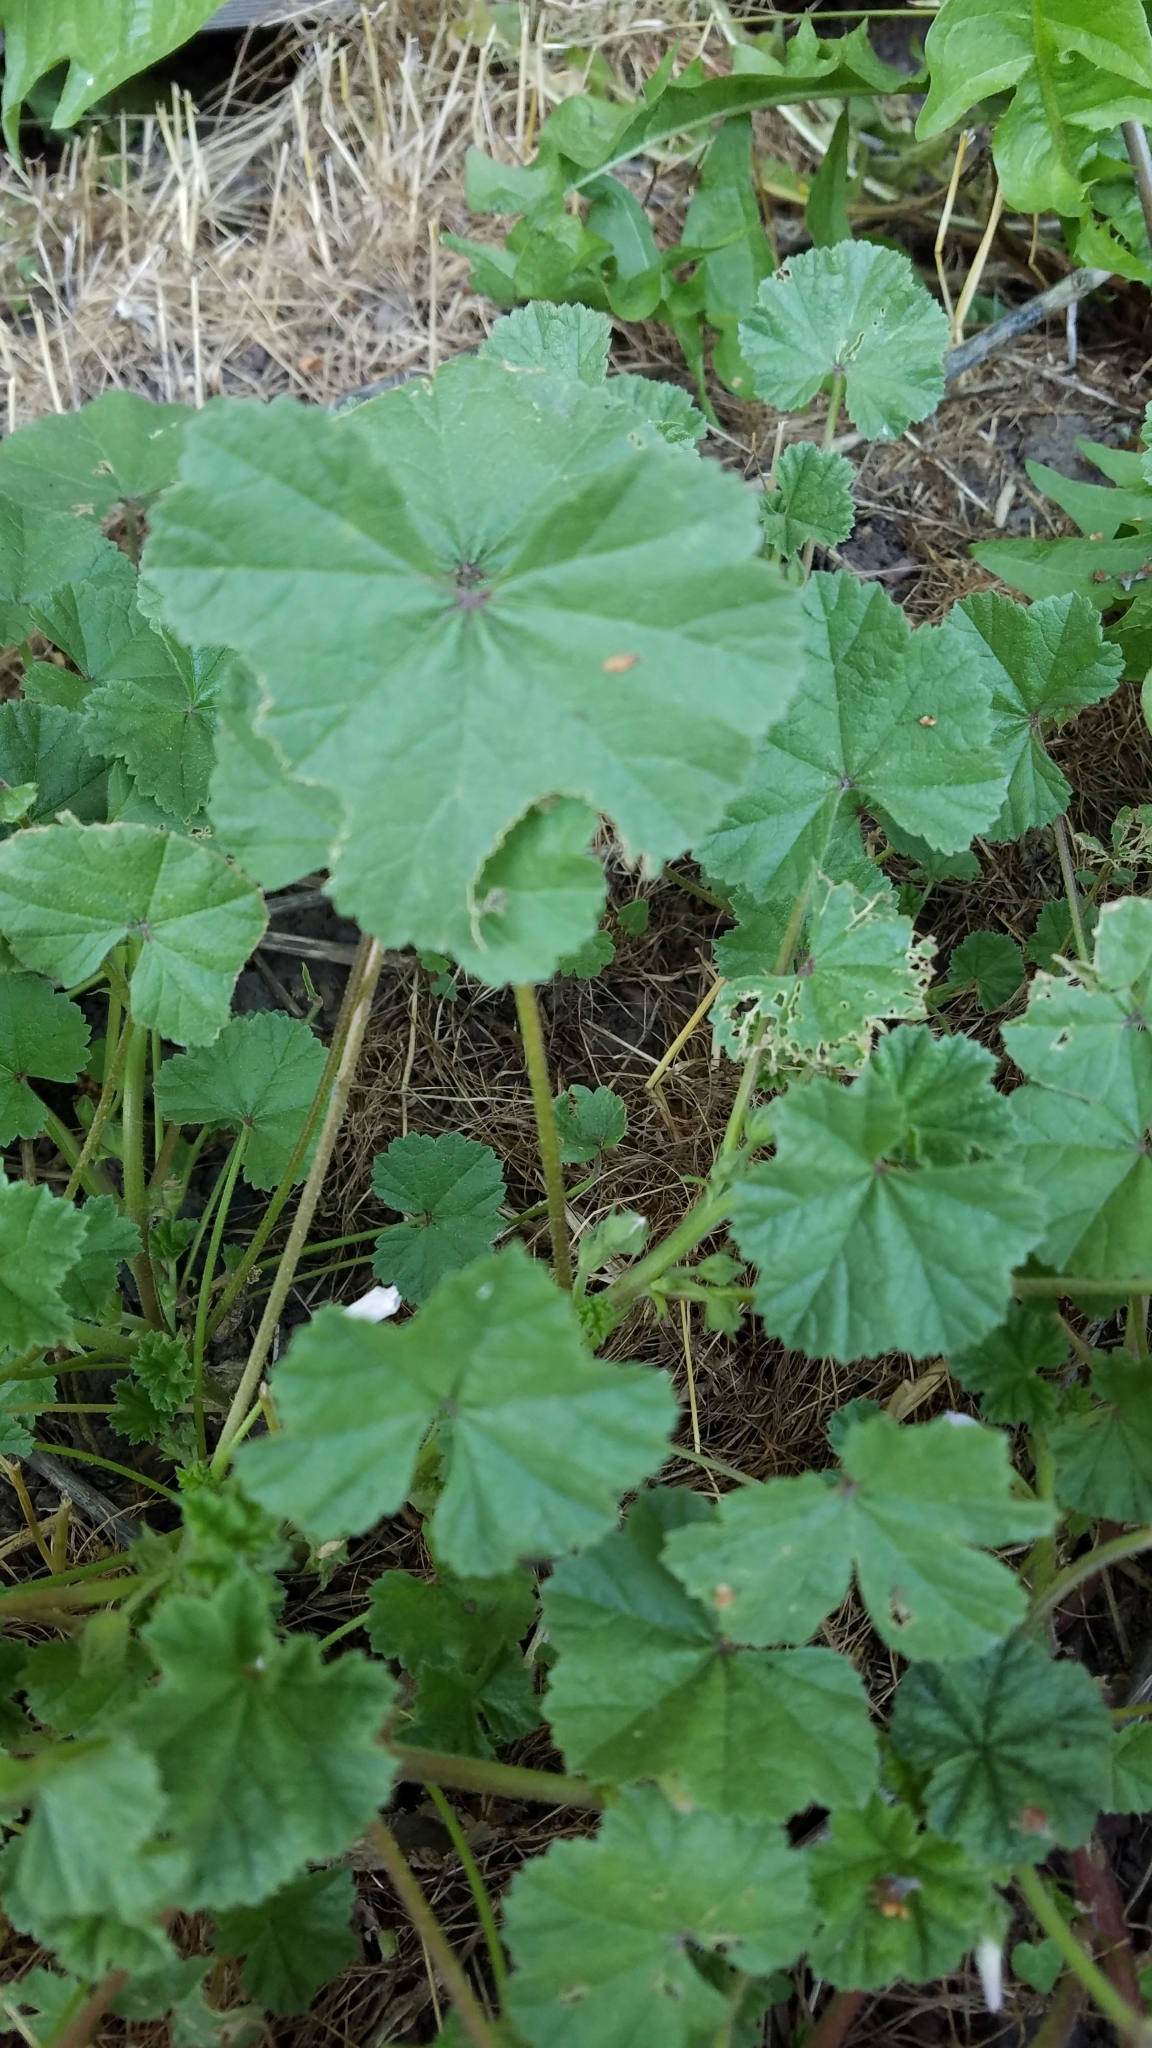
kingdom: Plantae
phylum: Tracheophyta
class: Magnoliopsida
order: Malvales
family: Malvaceae
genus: Malva
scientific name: Malva neglecta
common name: Common mallow
